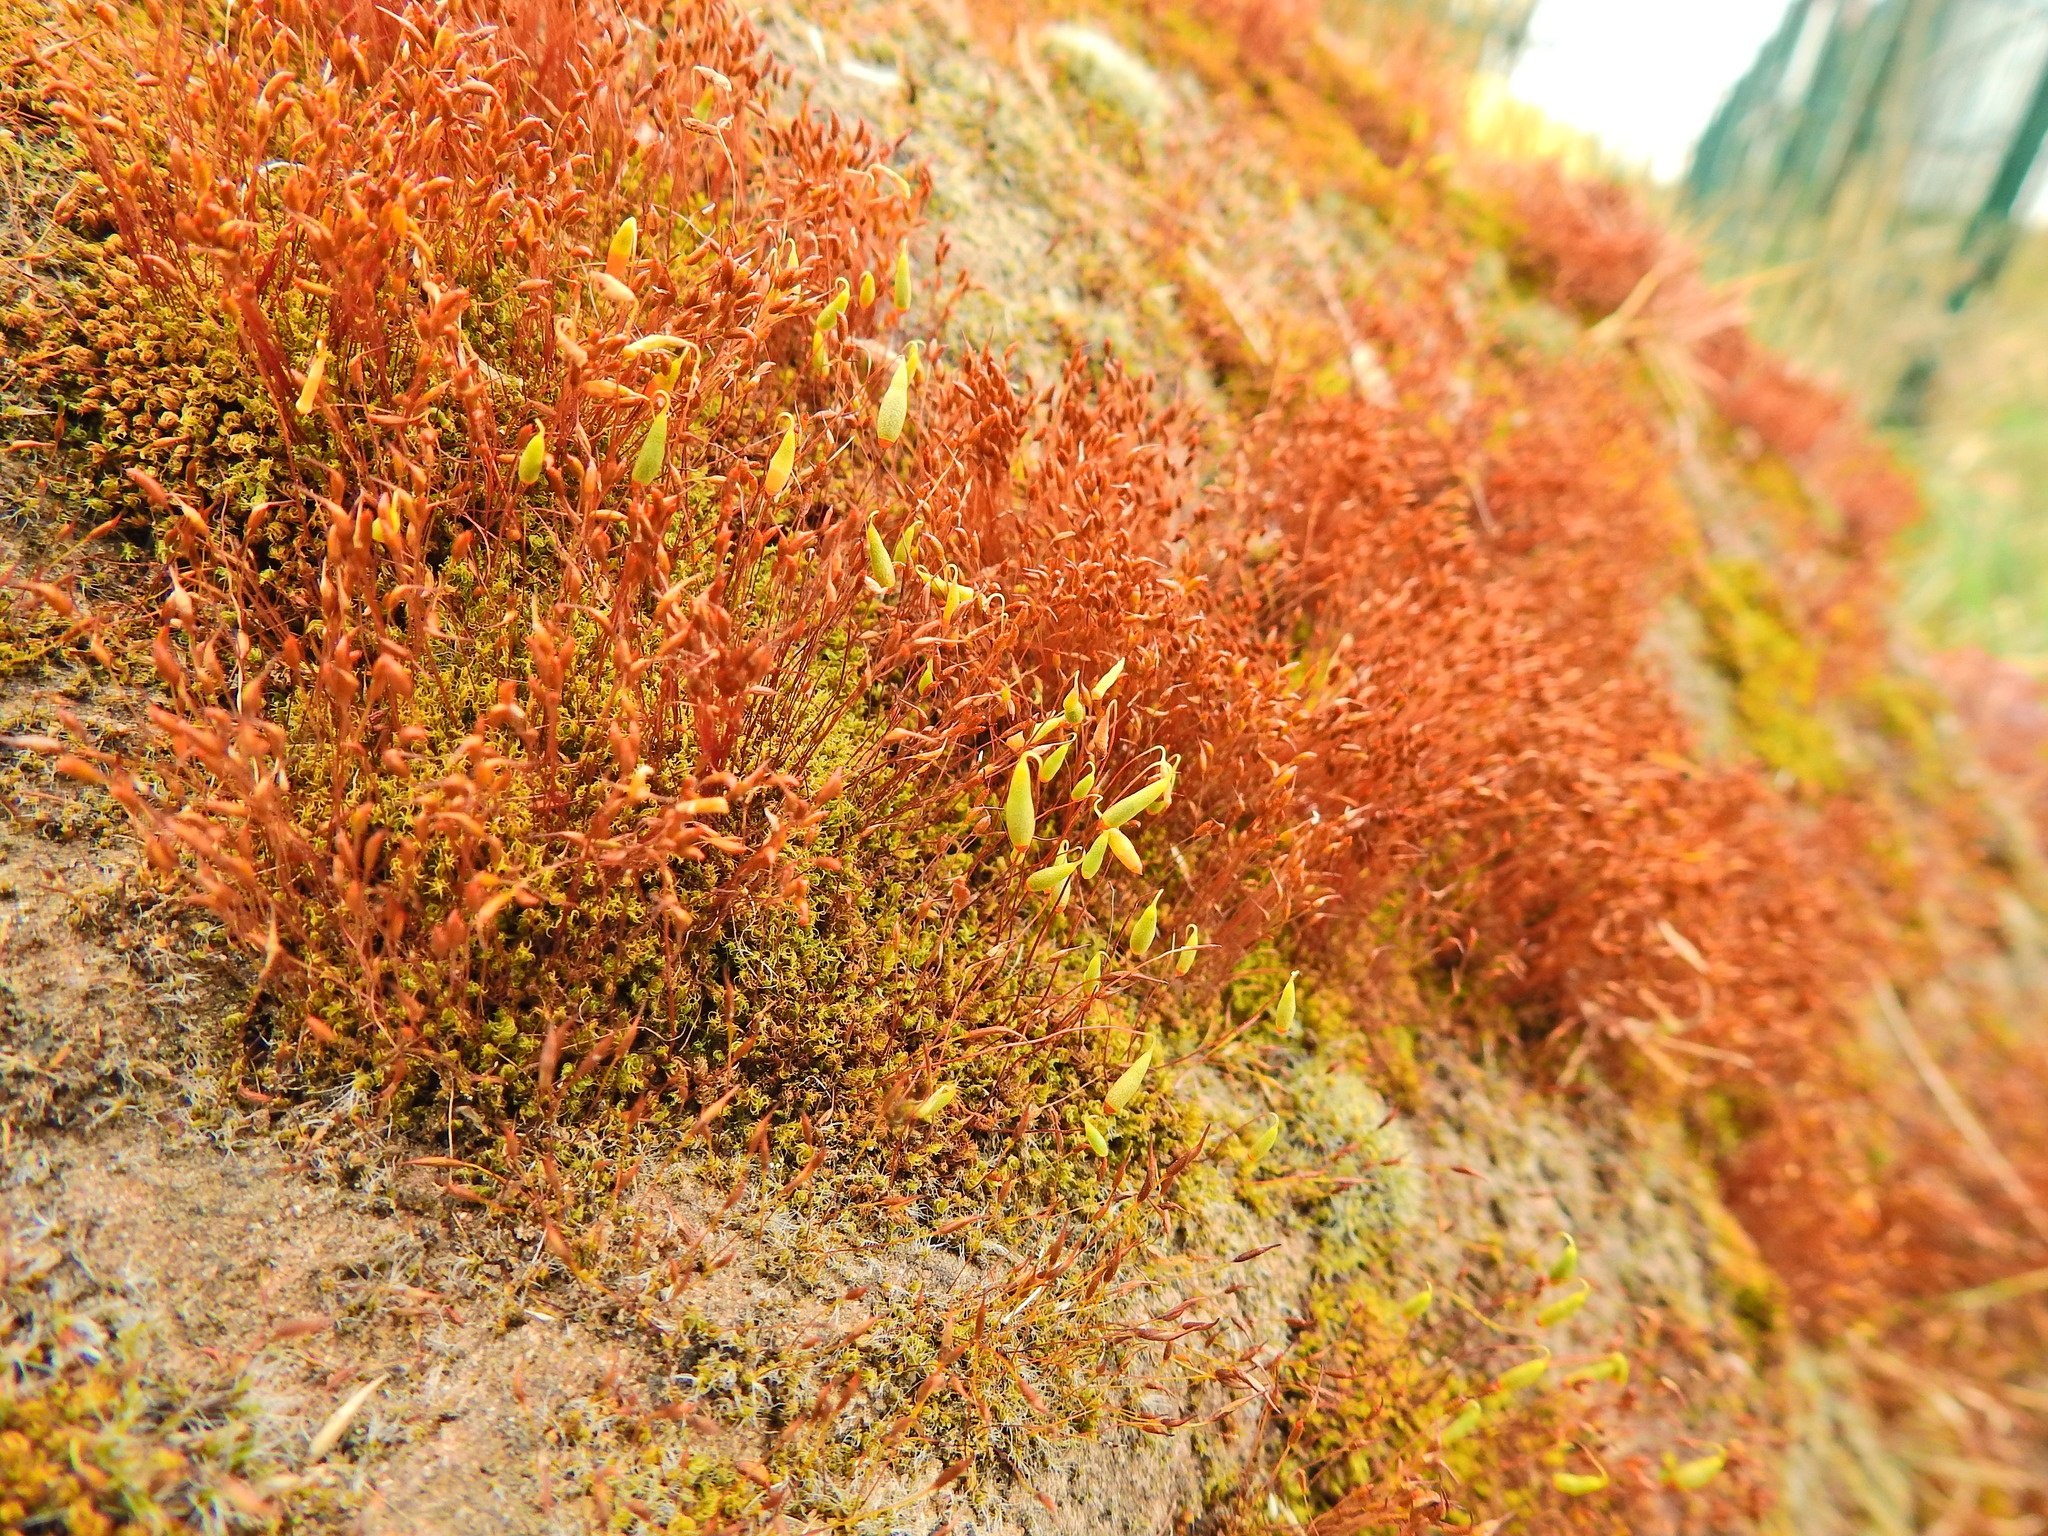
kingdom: Plantae
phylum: Bryophyta
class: Bryopsida
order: Bryales
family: Bryaceae
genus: Rosulabryum
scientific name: Rosulabryum capillare
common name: Capillary thread-moss
